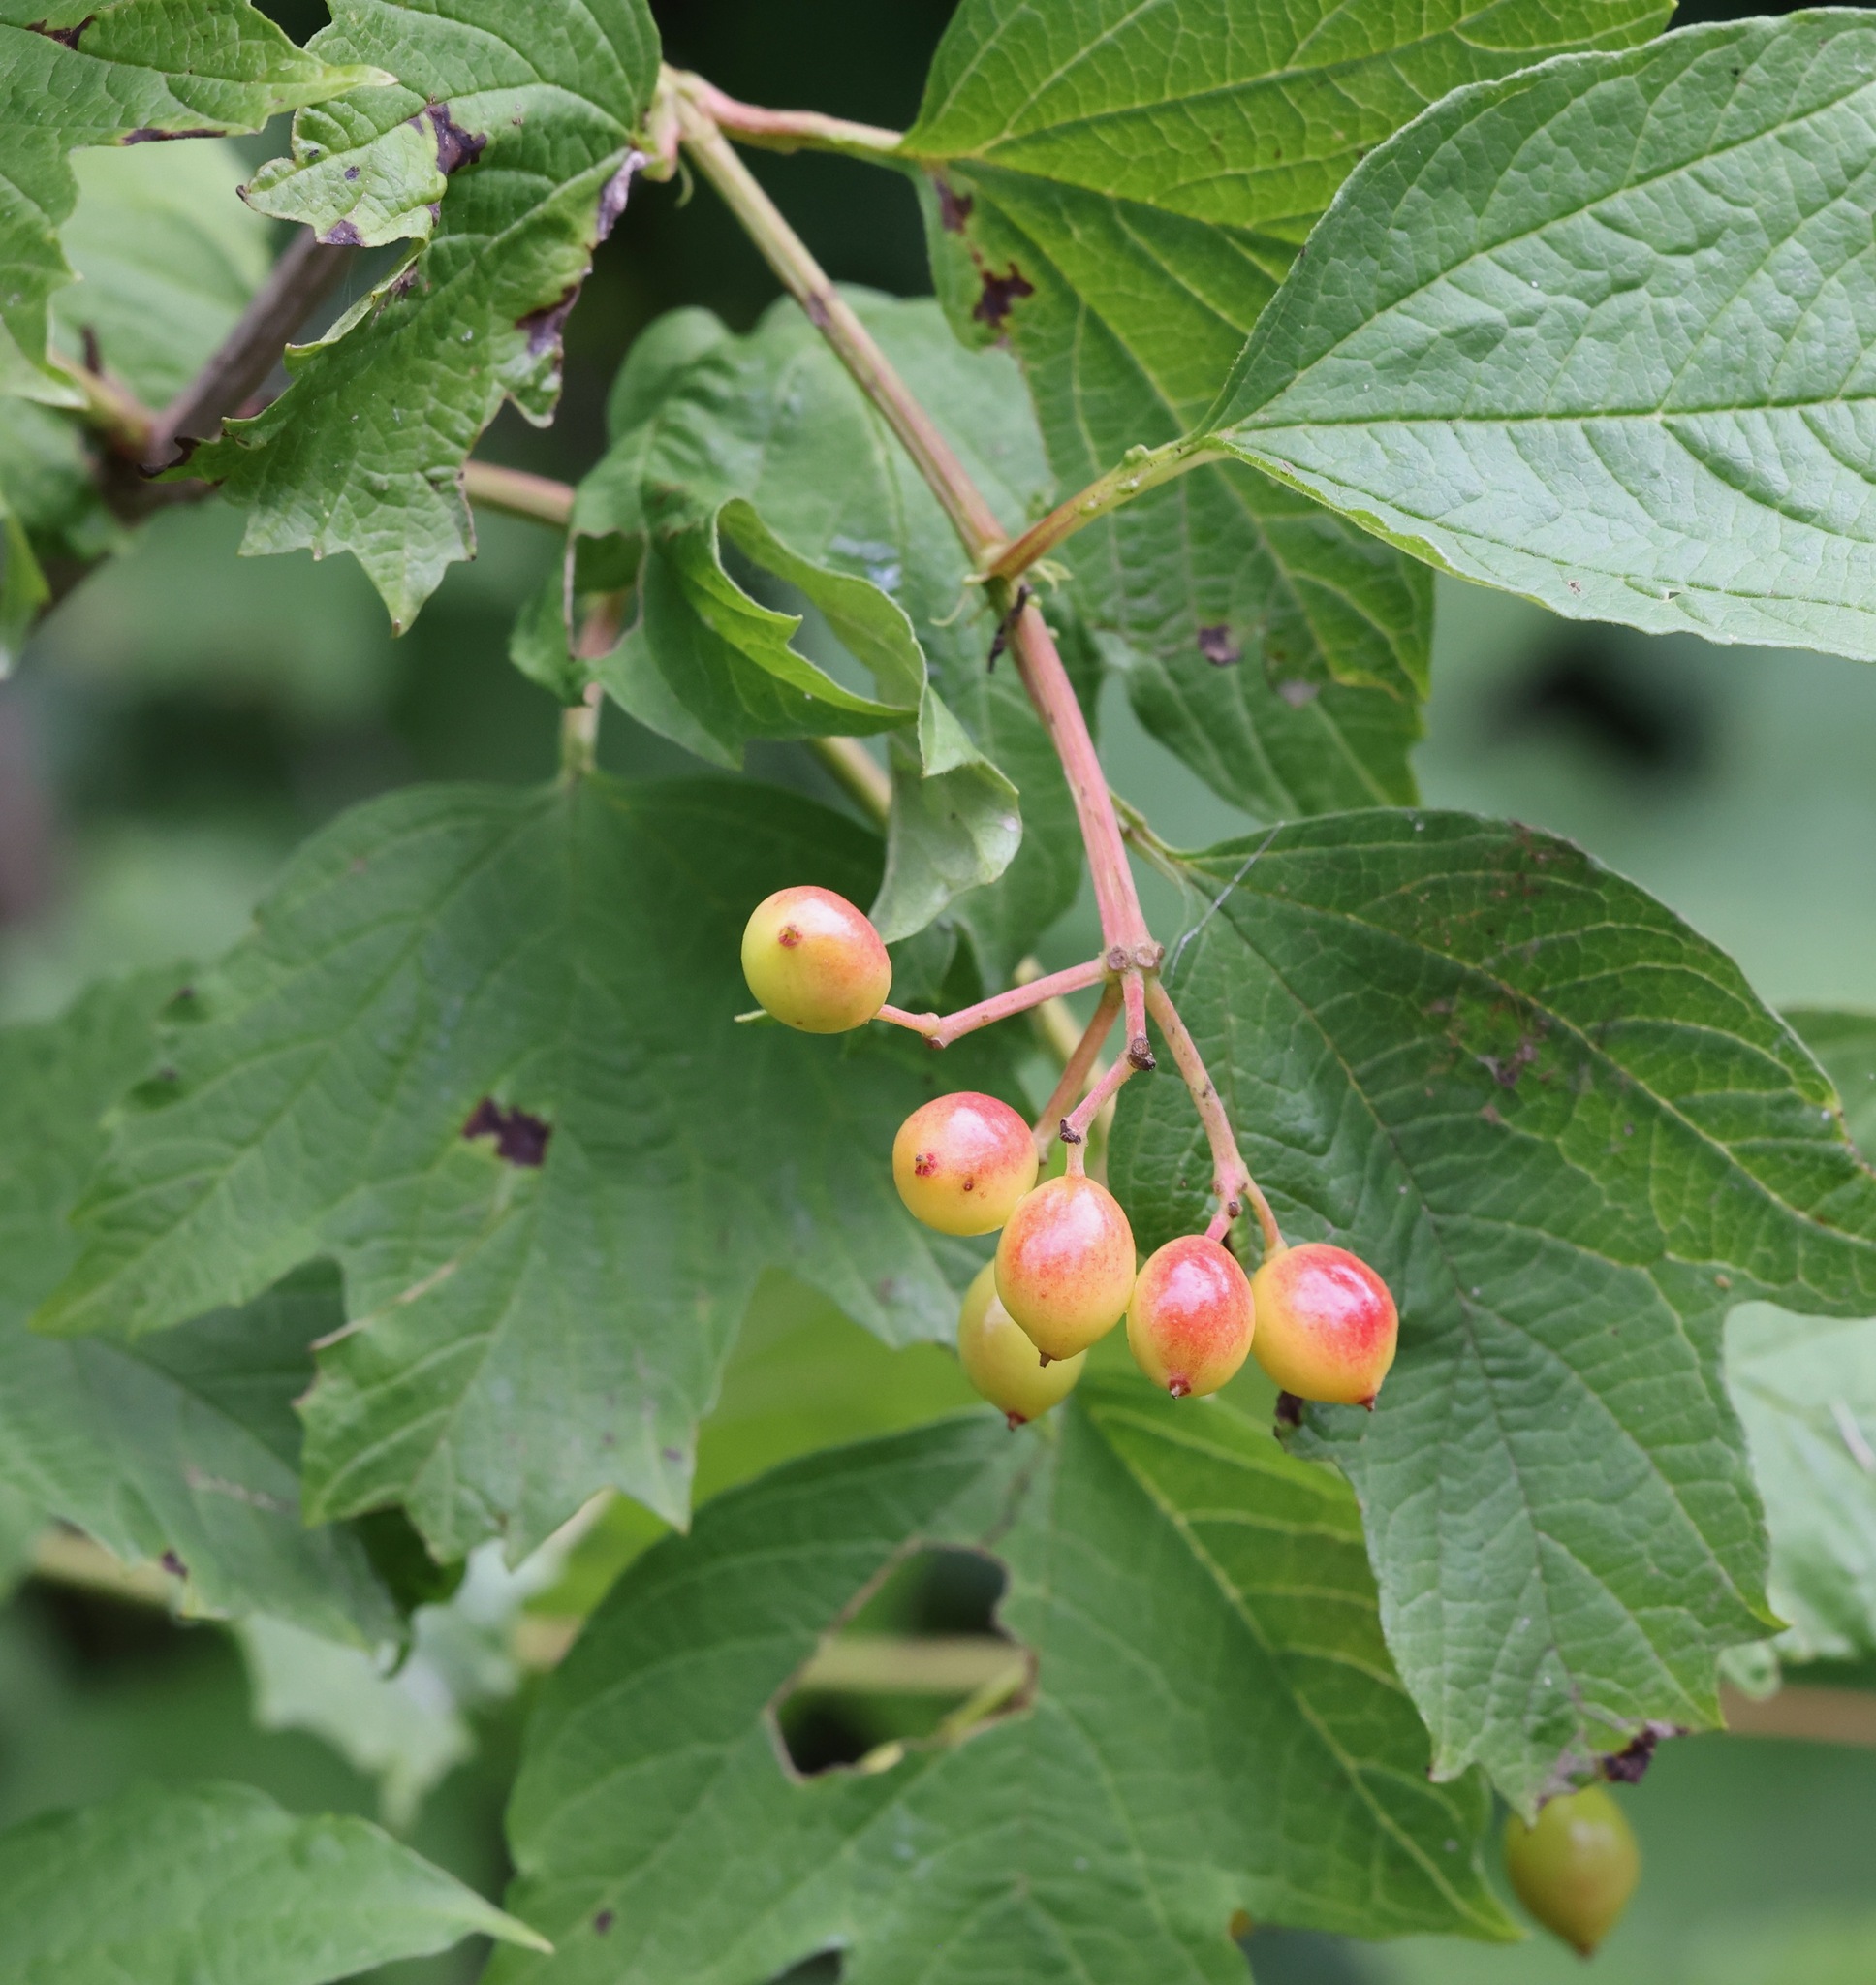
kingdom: Plantae
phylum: Tracheophyta
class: Magnoliopsida
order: Dipsacales
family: Viburnaceae
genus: Viburnum
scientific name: Viburnum opulus
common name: Guelder-rose
